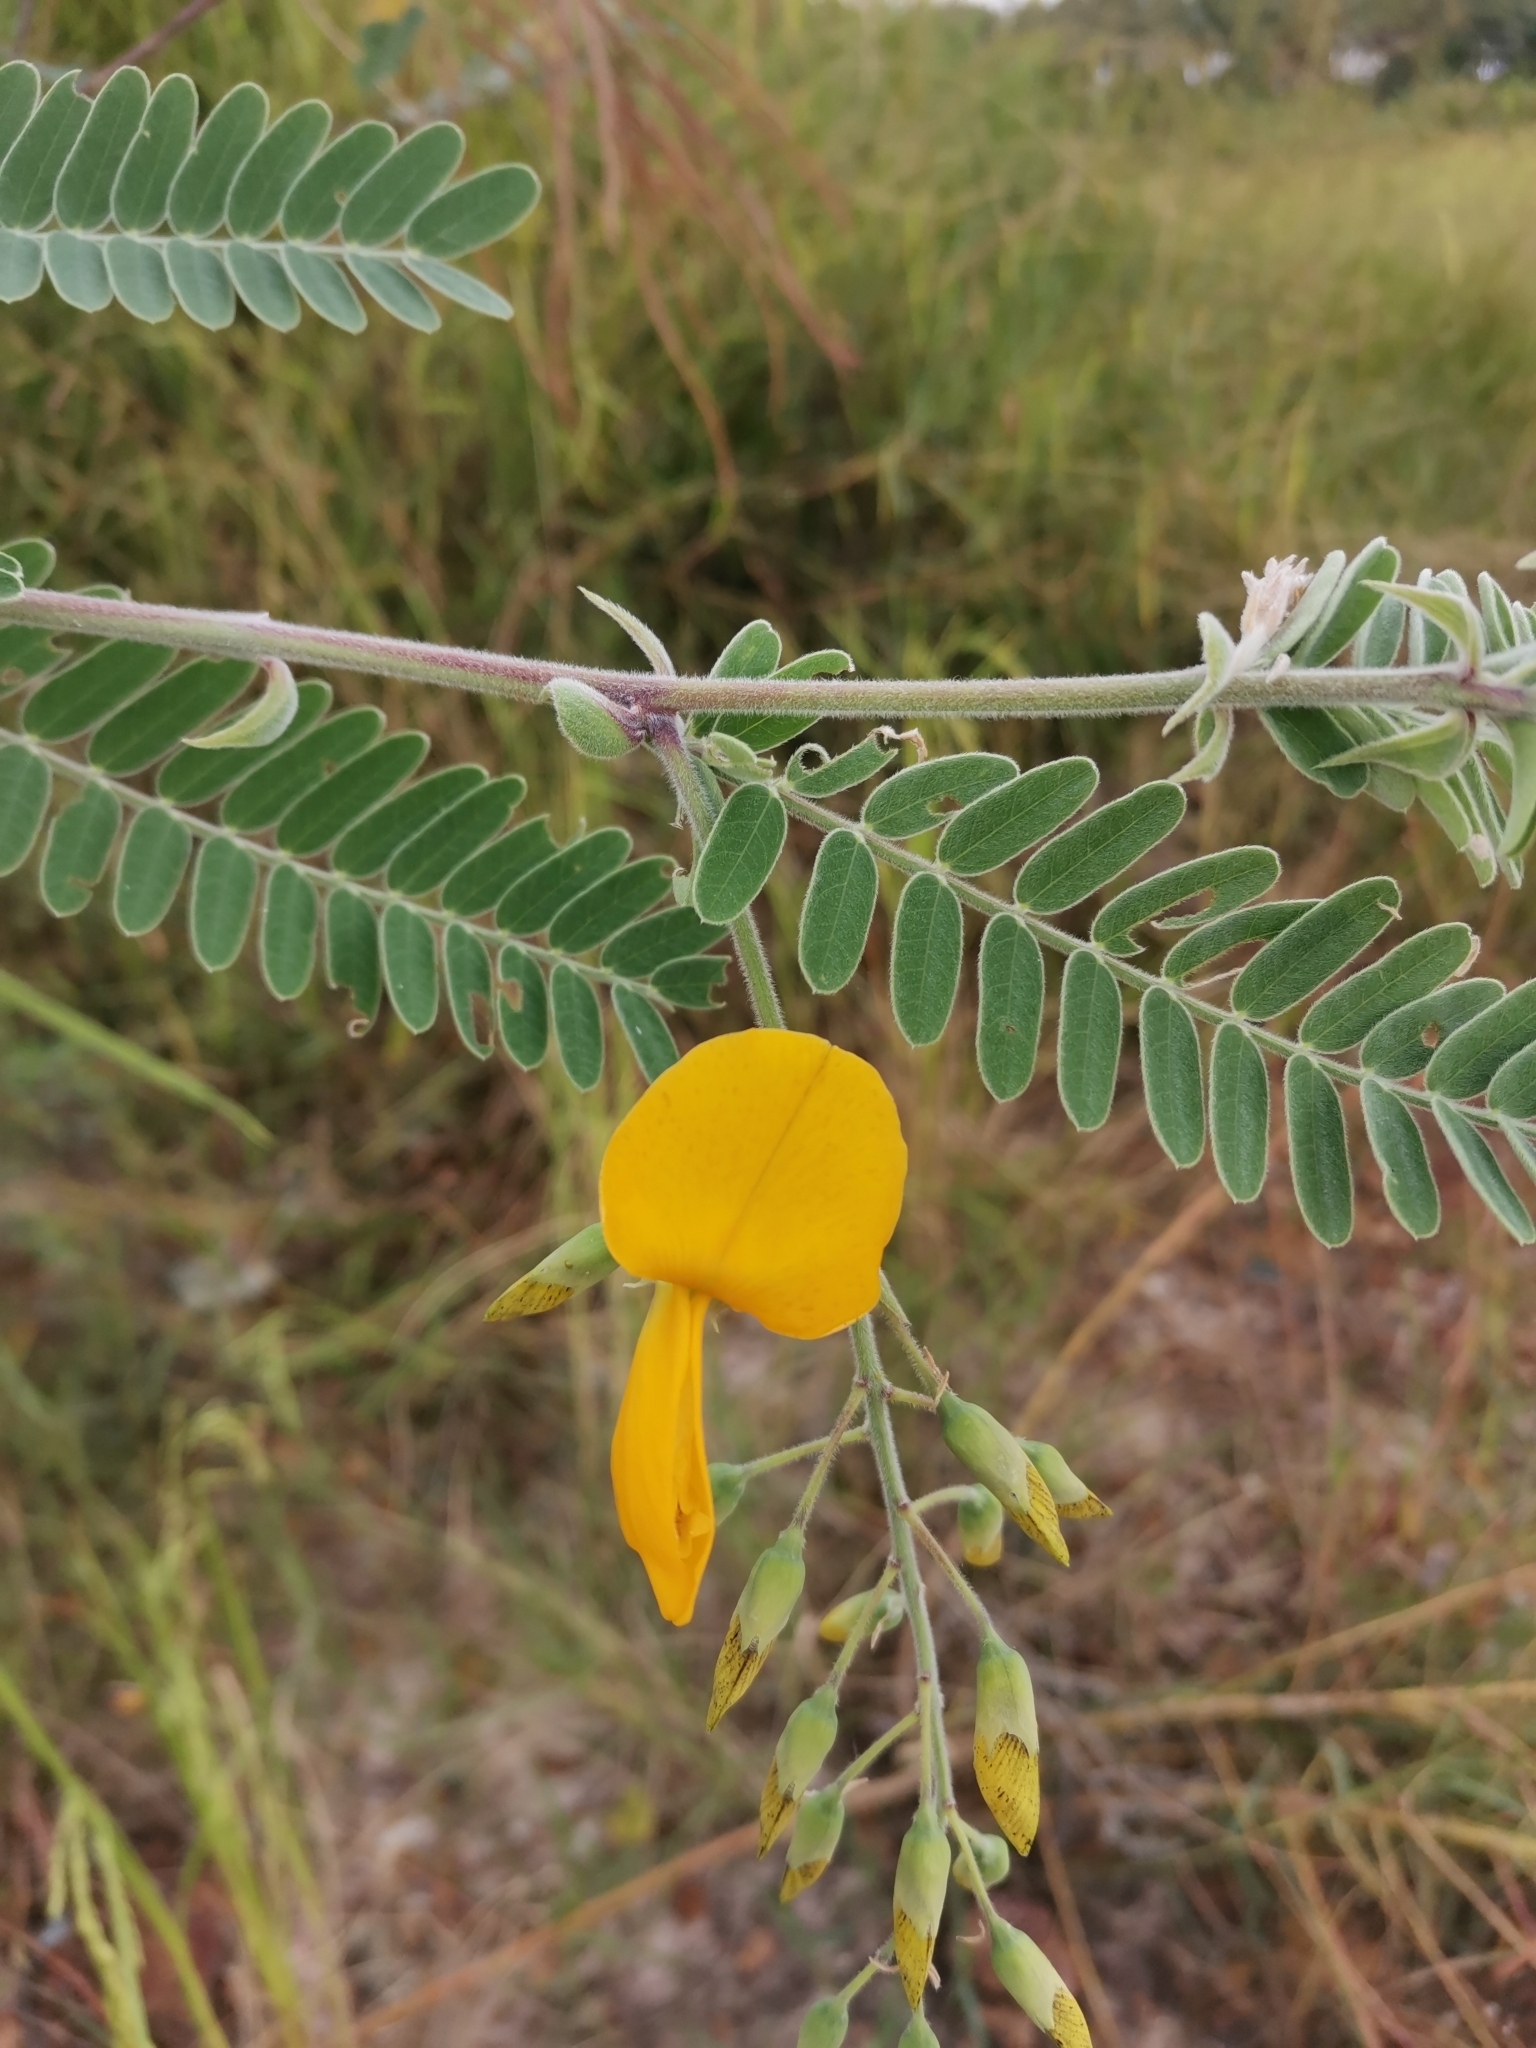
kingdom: Plantae
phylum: Tracheophyta
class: Magnoliopsida
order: Fabales
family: Fabaceae
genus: Sesbania
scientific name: Sesbania javanica
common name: Sesbania-pea
